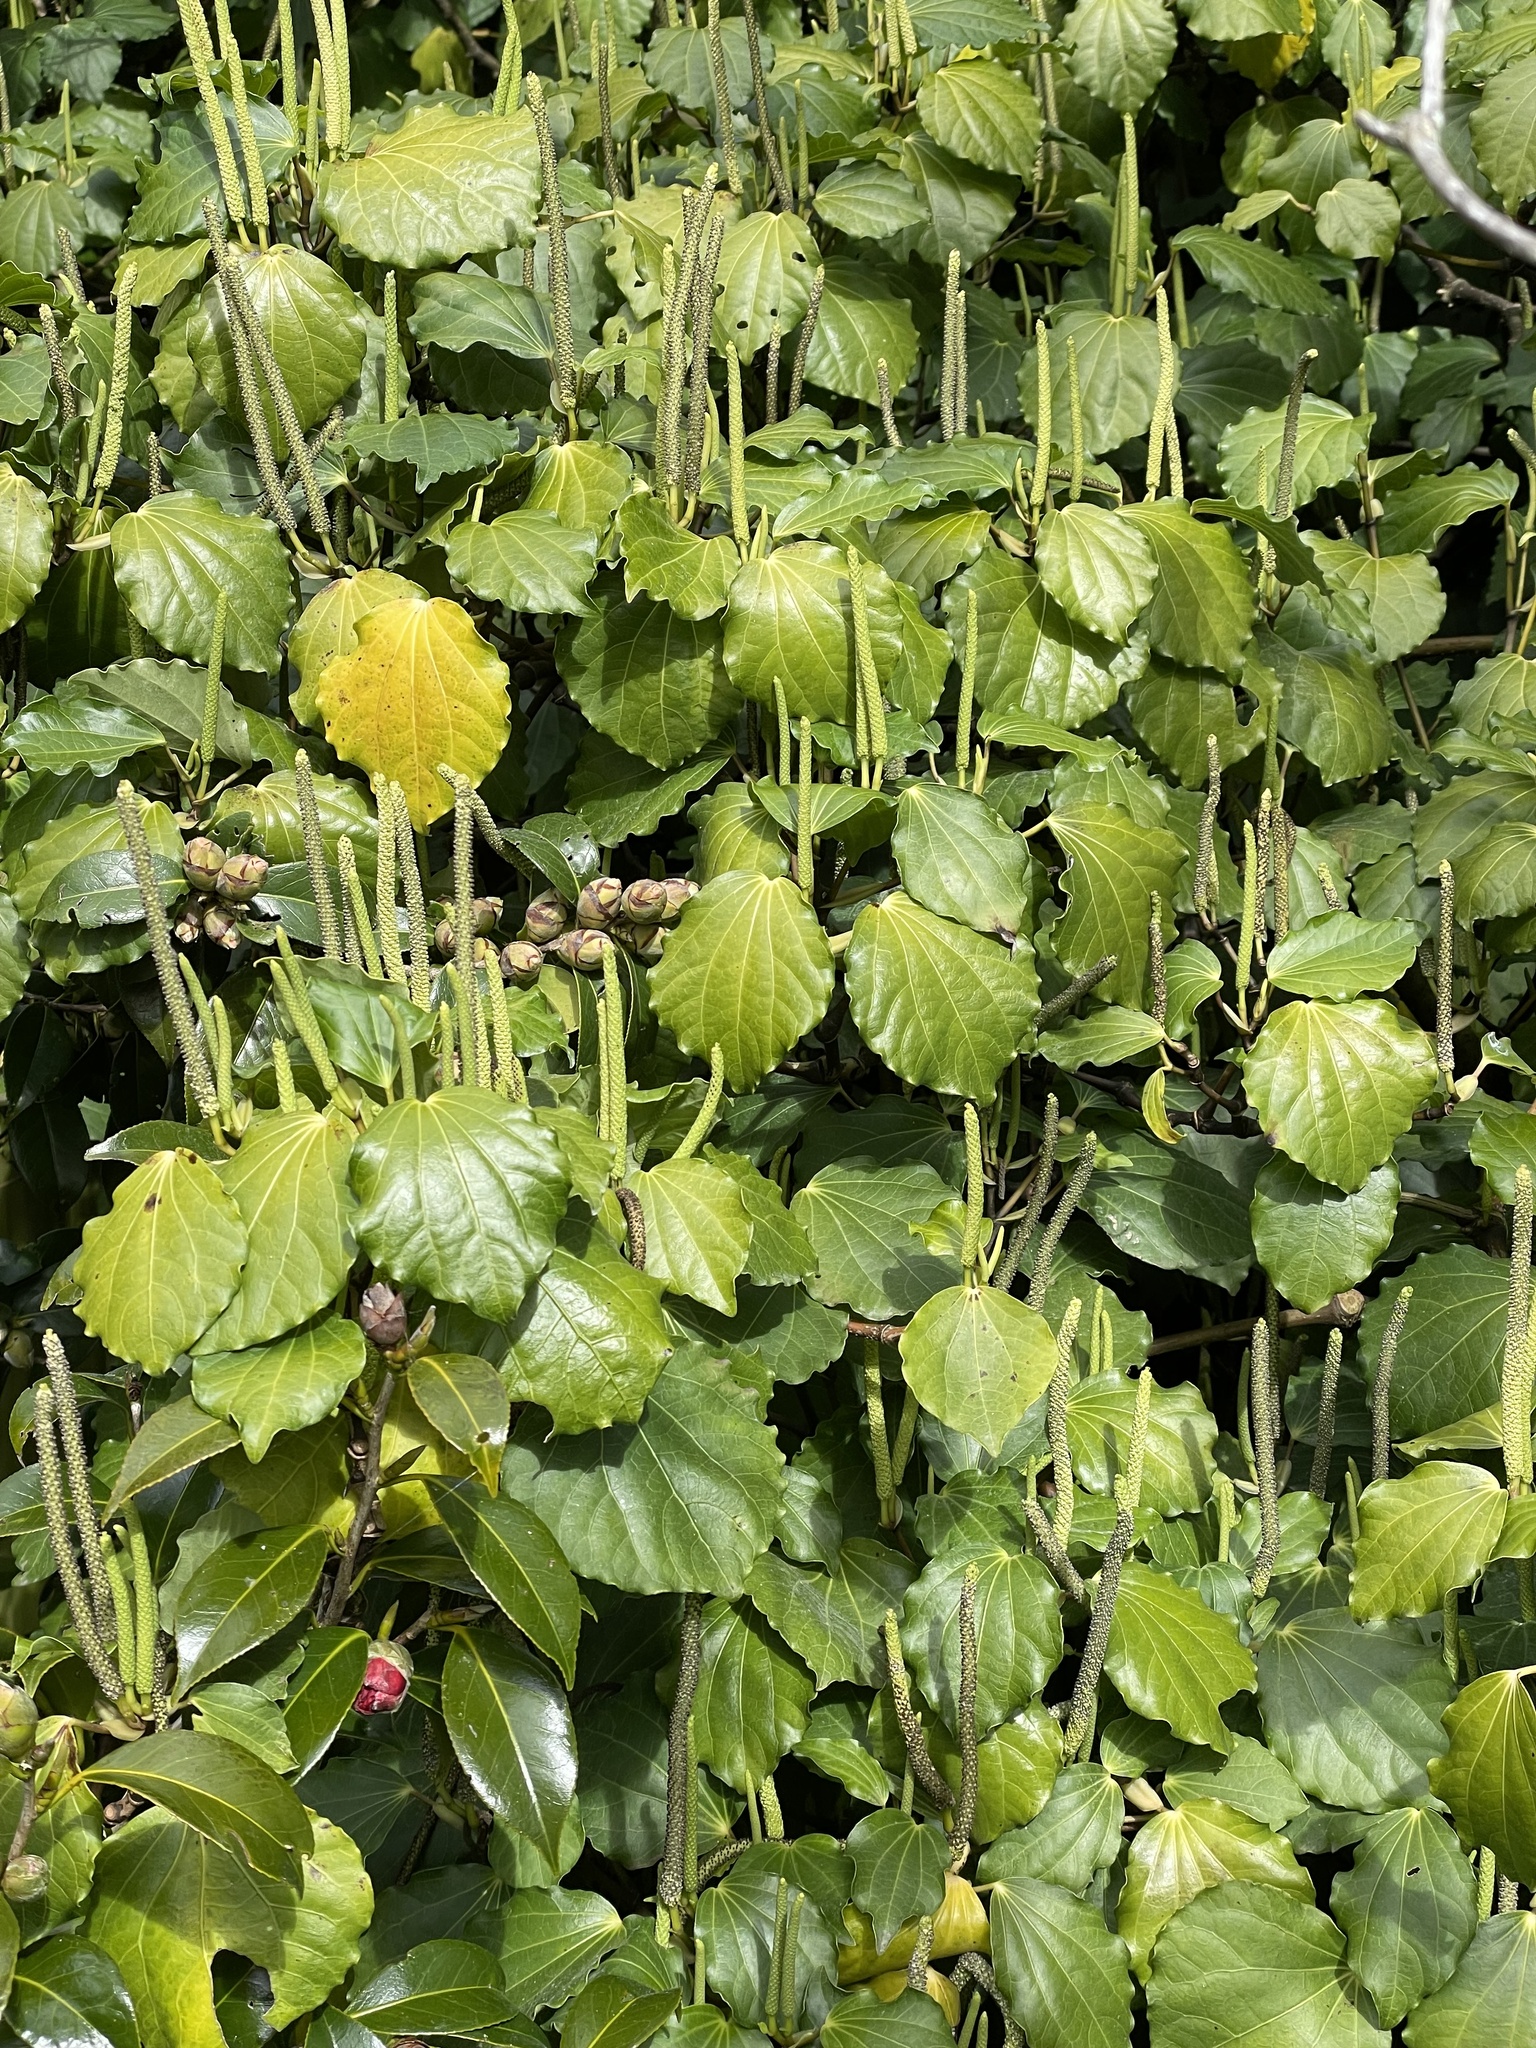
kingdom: Plantae
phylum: Tracheophyta
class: Magnoliopsida
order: Piperales
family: Piperaceae
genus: Macropiper
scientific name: Macropiper excelsum
